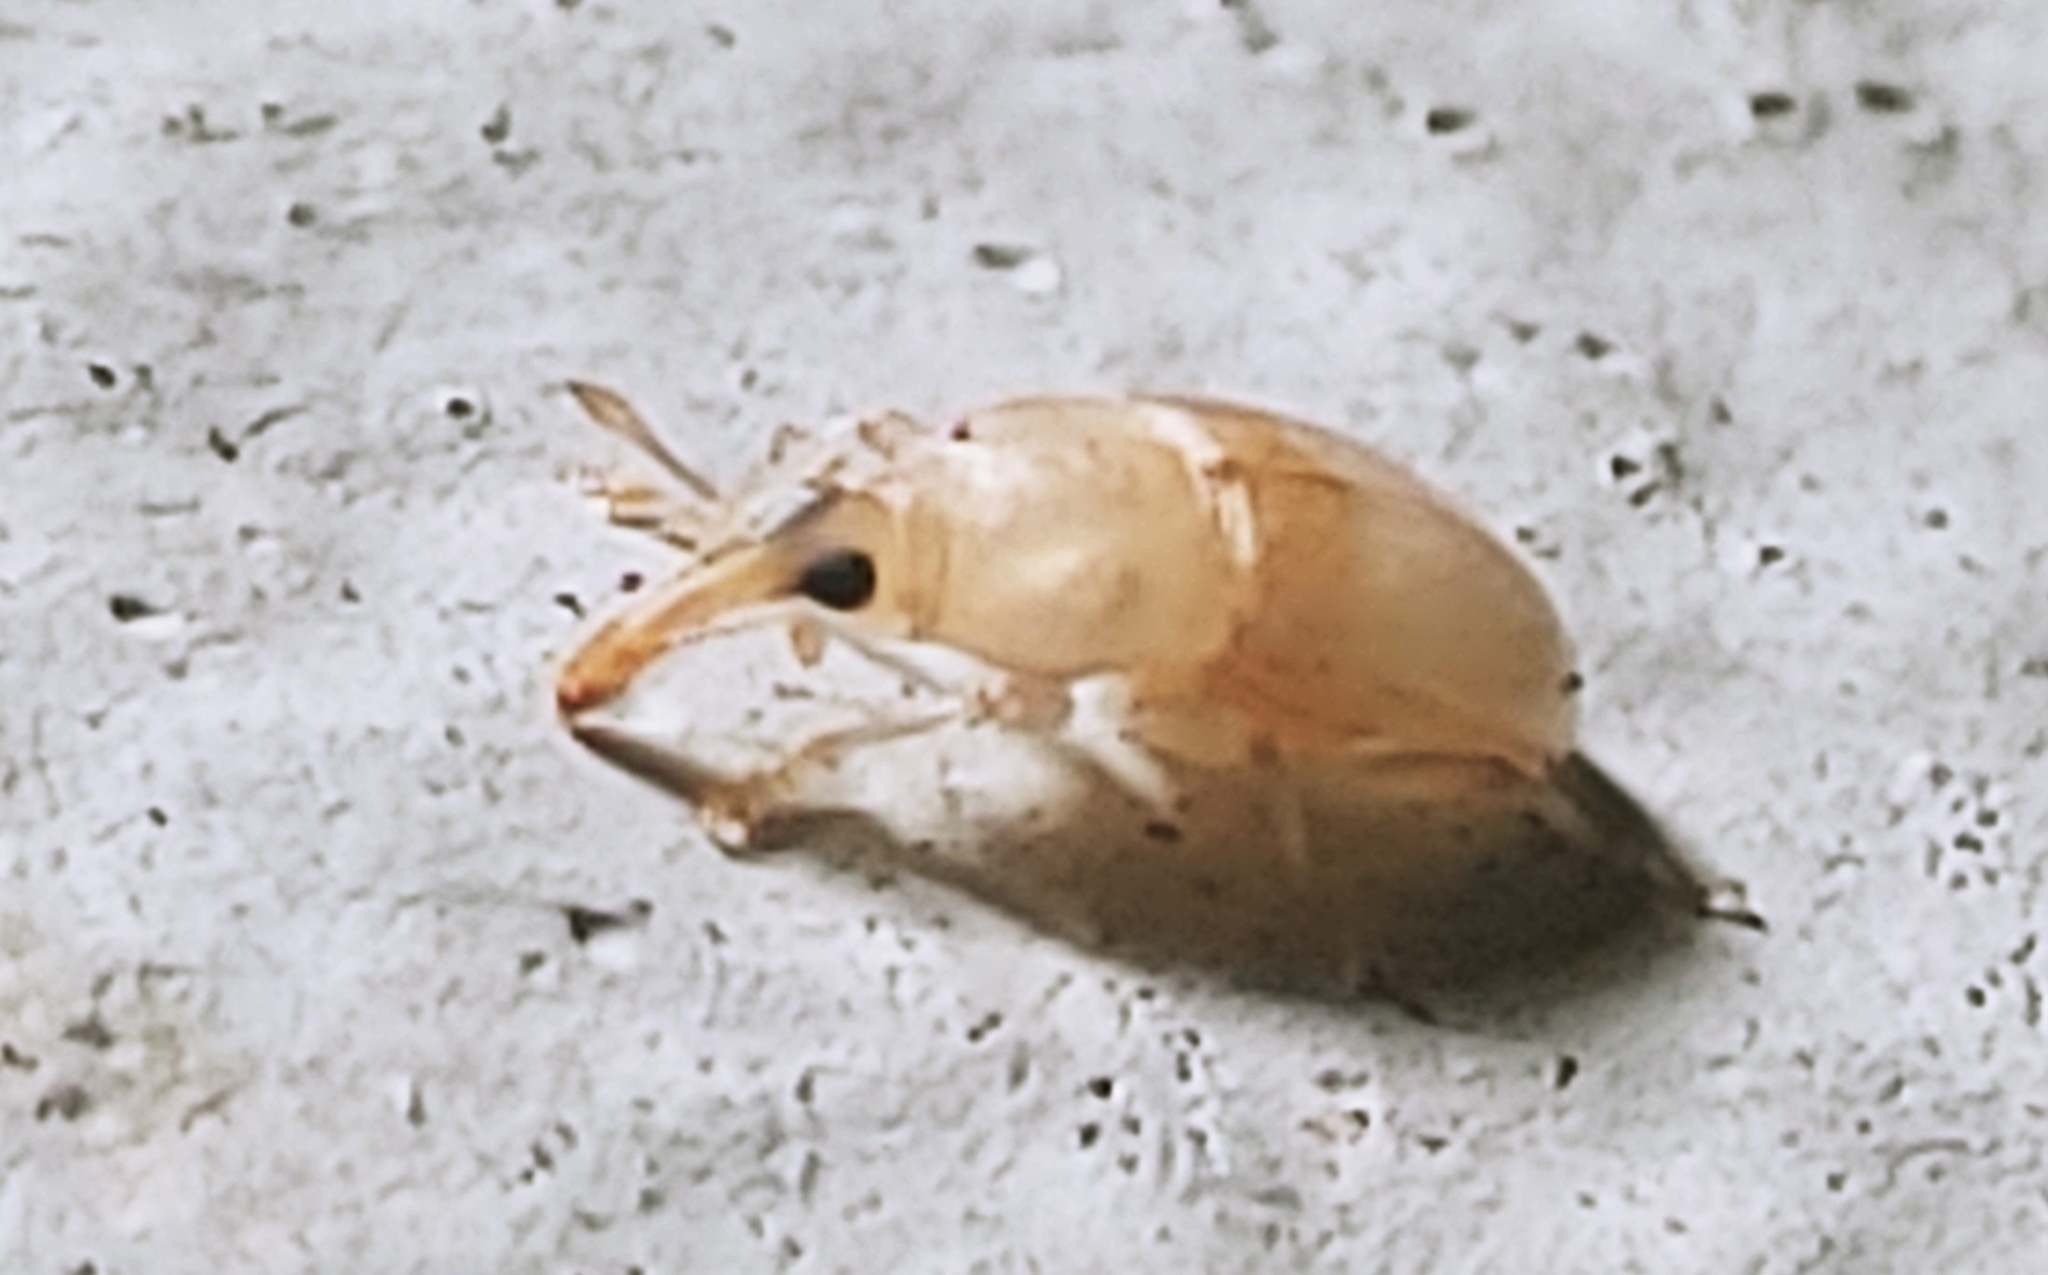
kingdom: Animalia
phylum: Arthropoda
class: Insecta
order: Coleoptera
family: Curculionidae
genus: Notolomus
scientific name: Notolomus basalis
